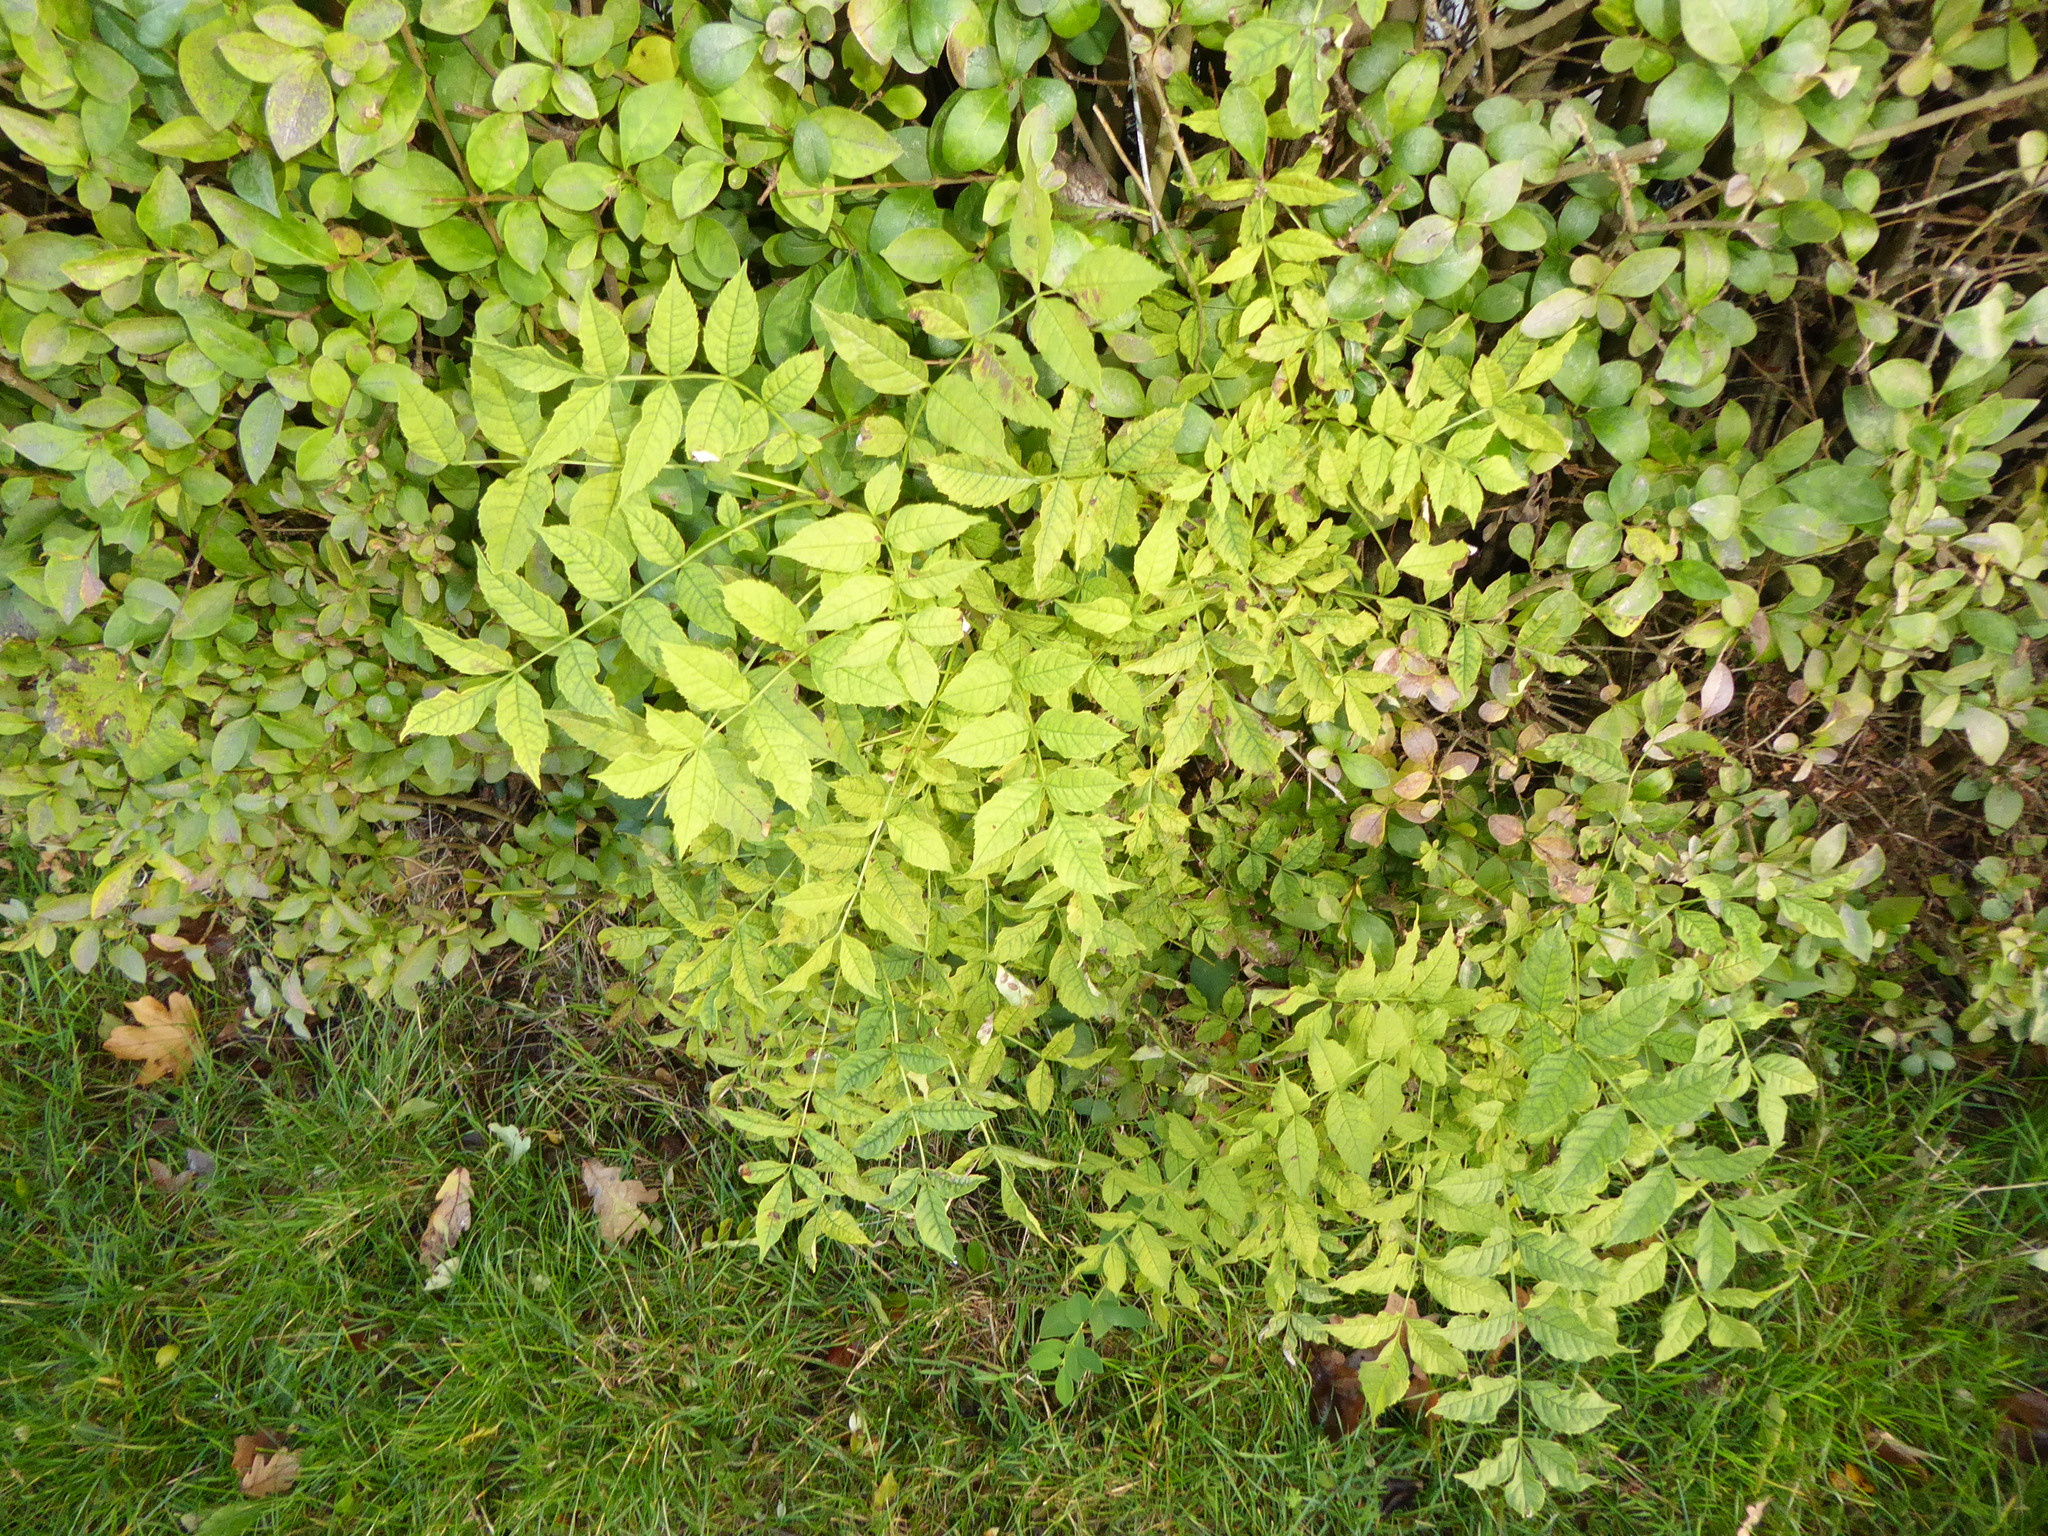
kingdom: Plantae
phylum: Tracheophyta
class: Magnoliopsida
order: Lamiales
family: Oleaceae
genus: Fraxinus
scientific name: Fraxinus excelsior
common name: European ash
